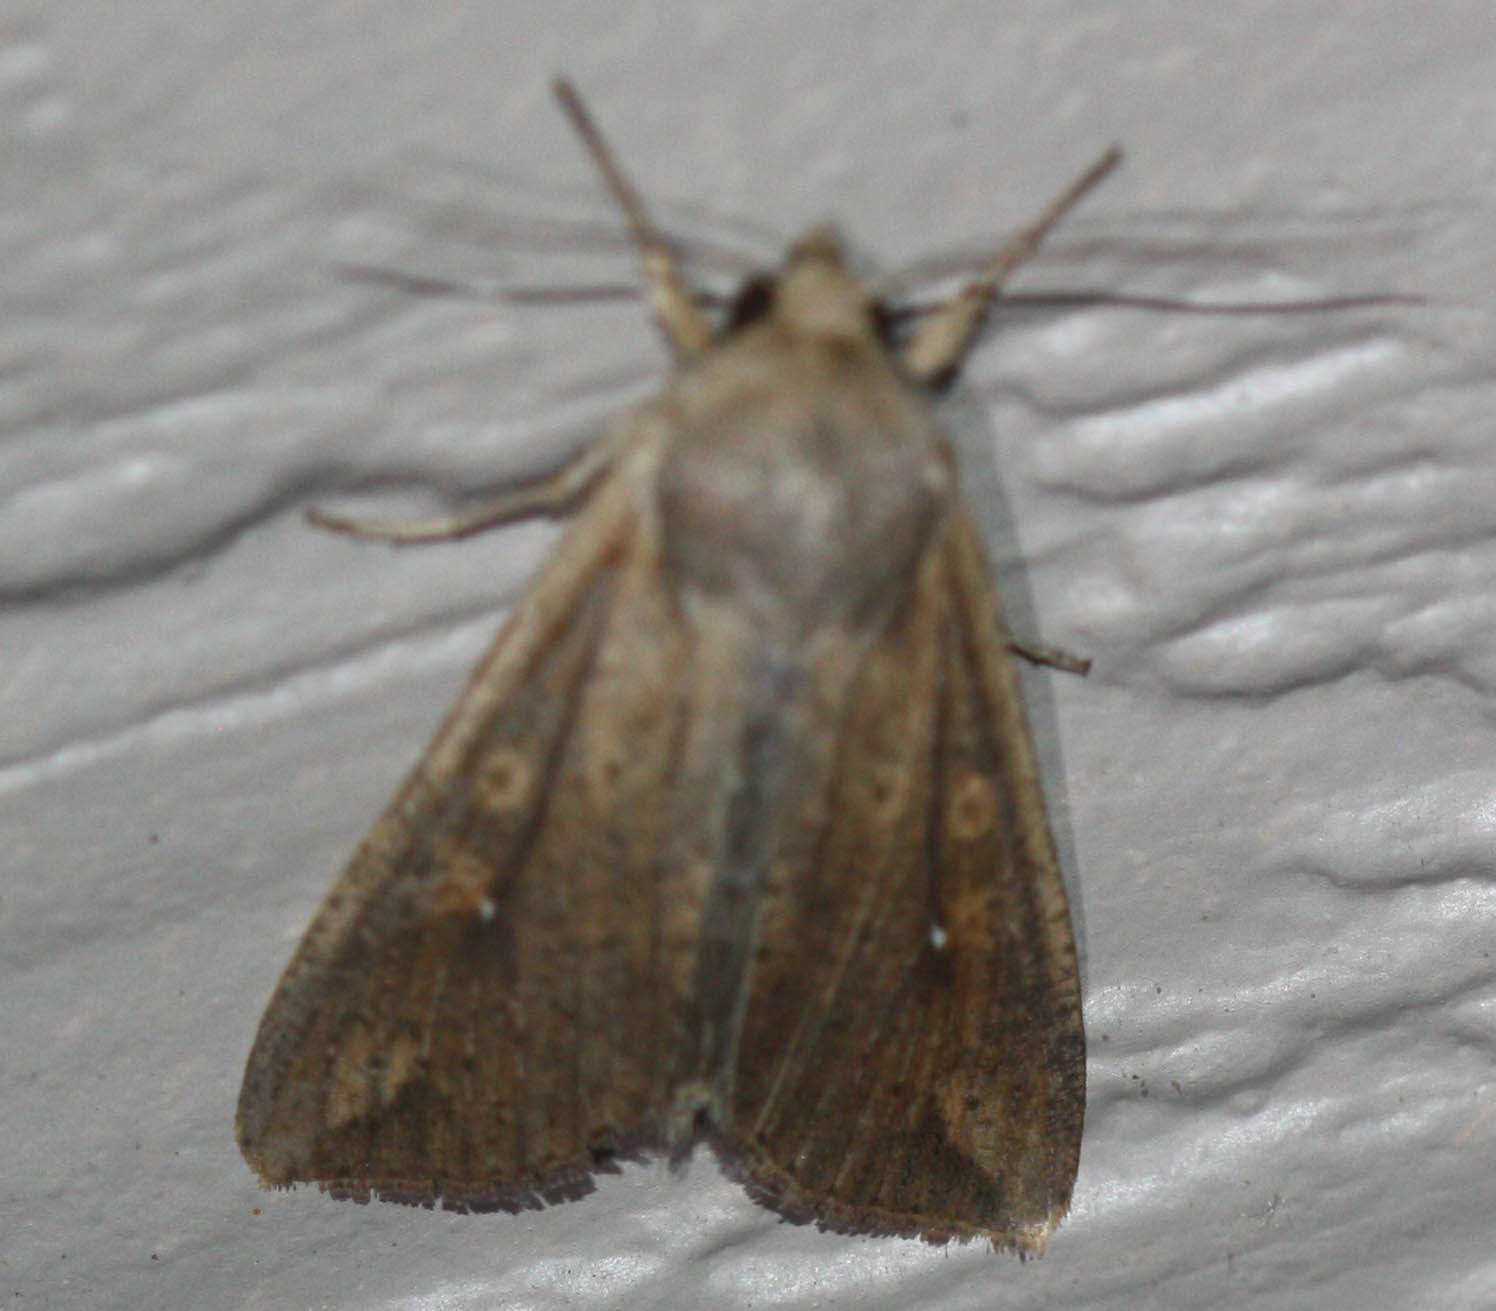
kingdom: Animalia
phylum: Arthropoda
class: Insecta
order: Lepidoptera
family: Noctuidae
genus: Mythimna
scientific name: Mythimna unipuncta
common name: White-speck
